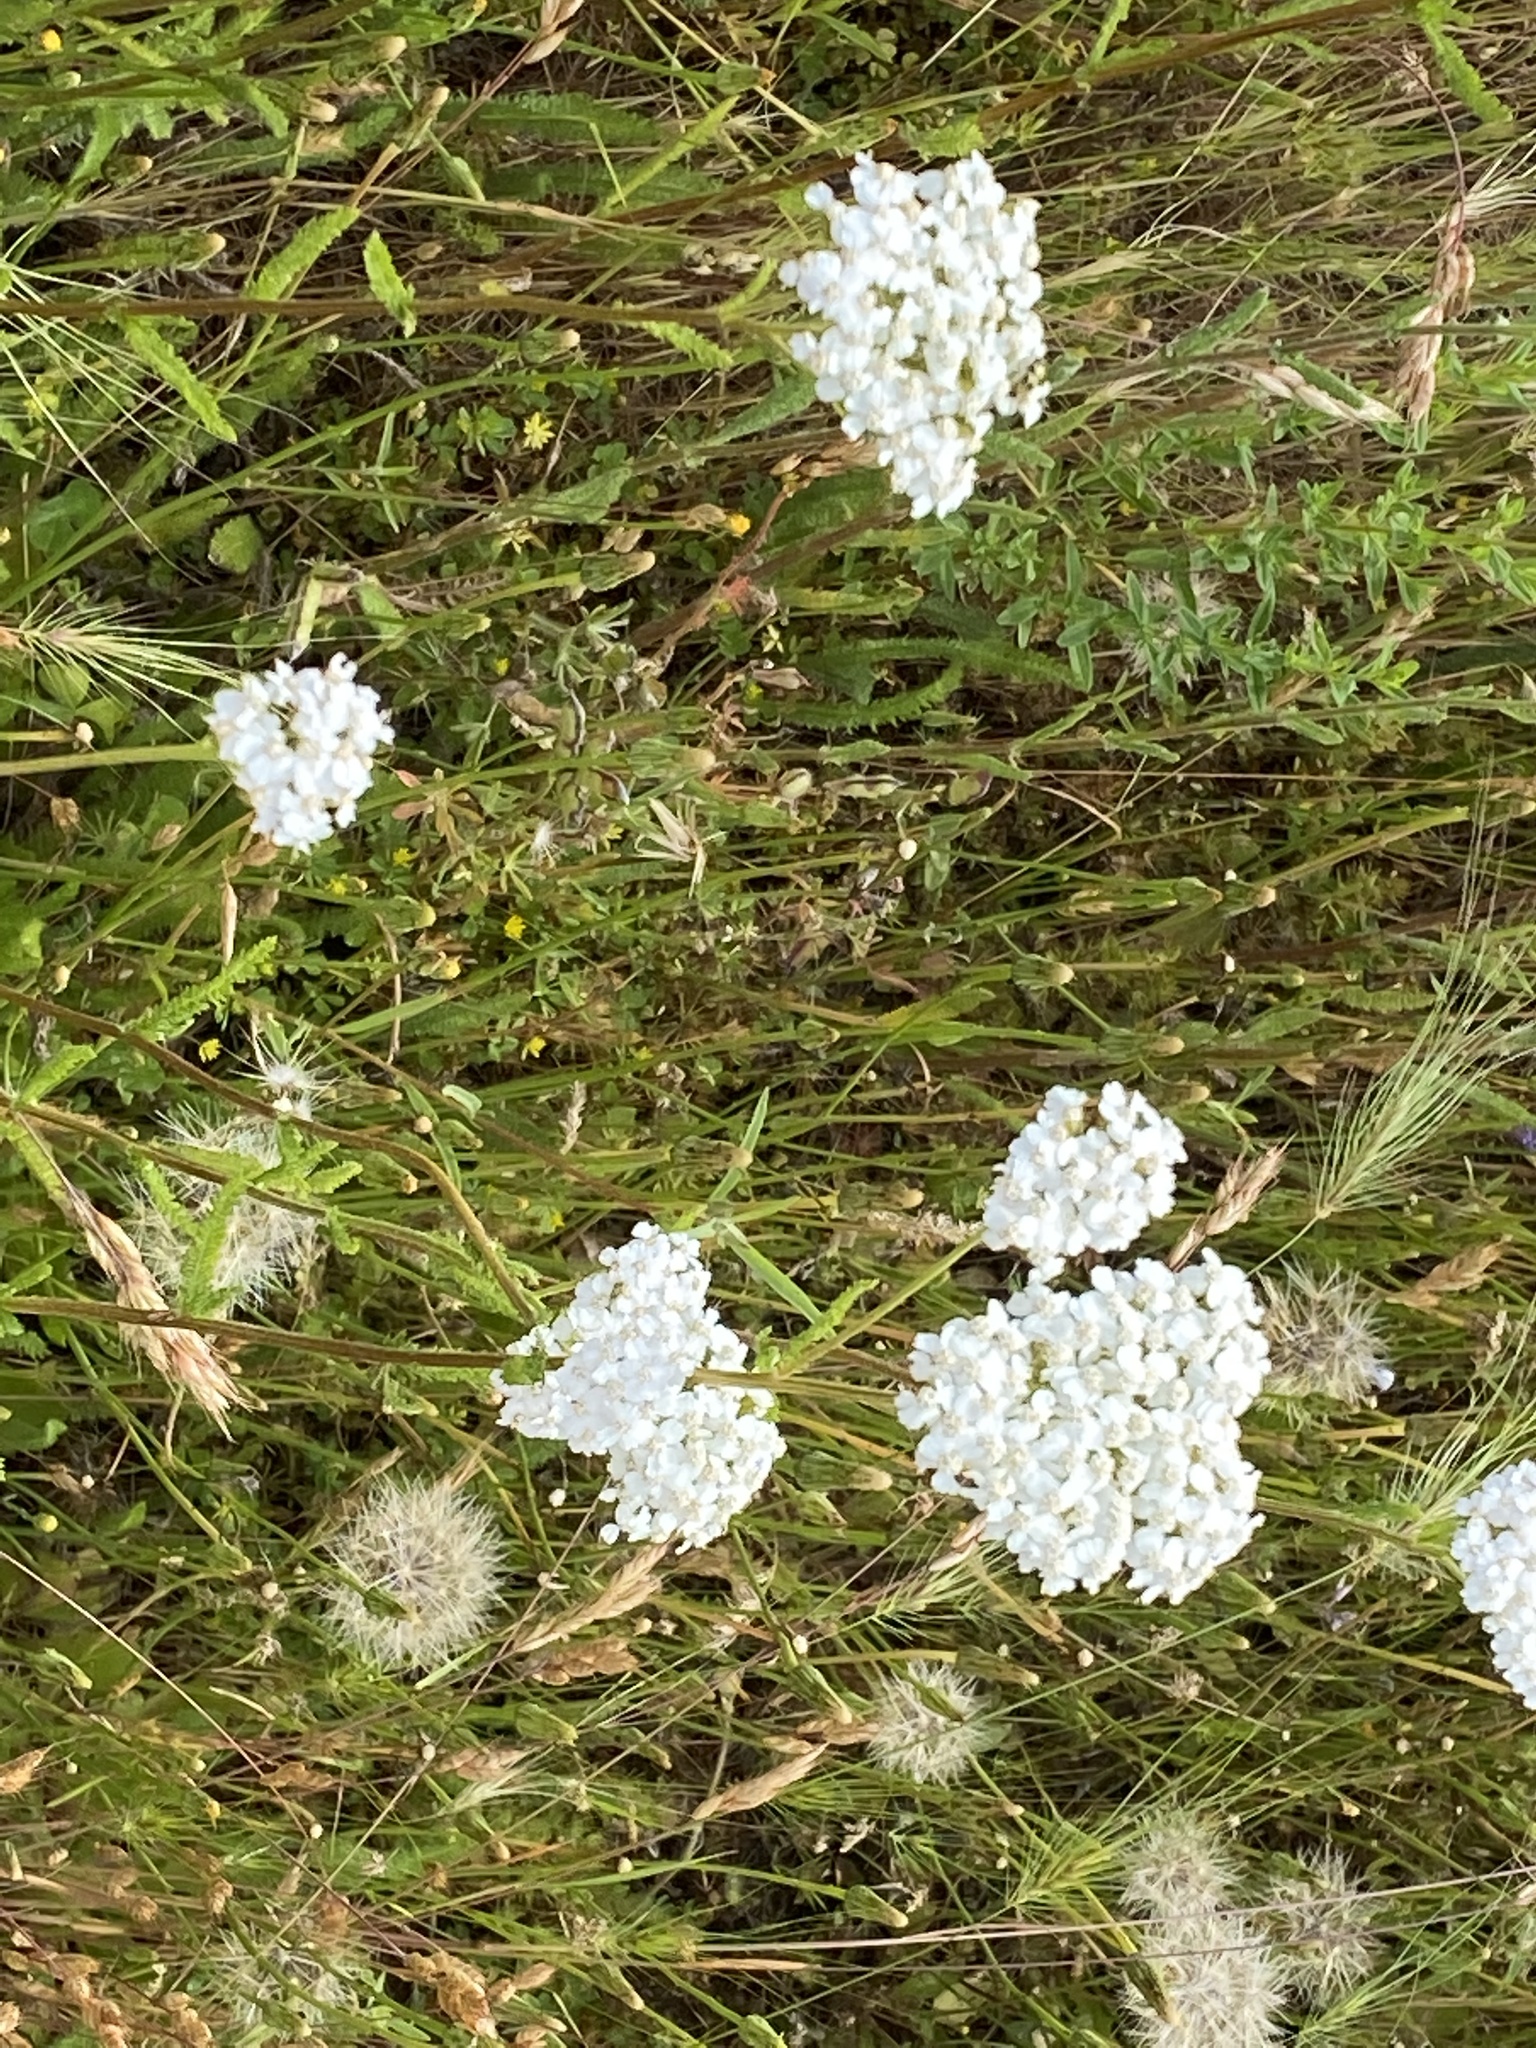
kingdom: Plantae
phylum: Tracheophyta
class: Magnoliopsida
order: Asterales
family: Asteraceae
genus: Achillea
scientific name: Achillea millefolium
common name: Yarrow
